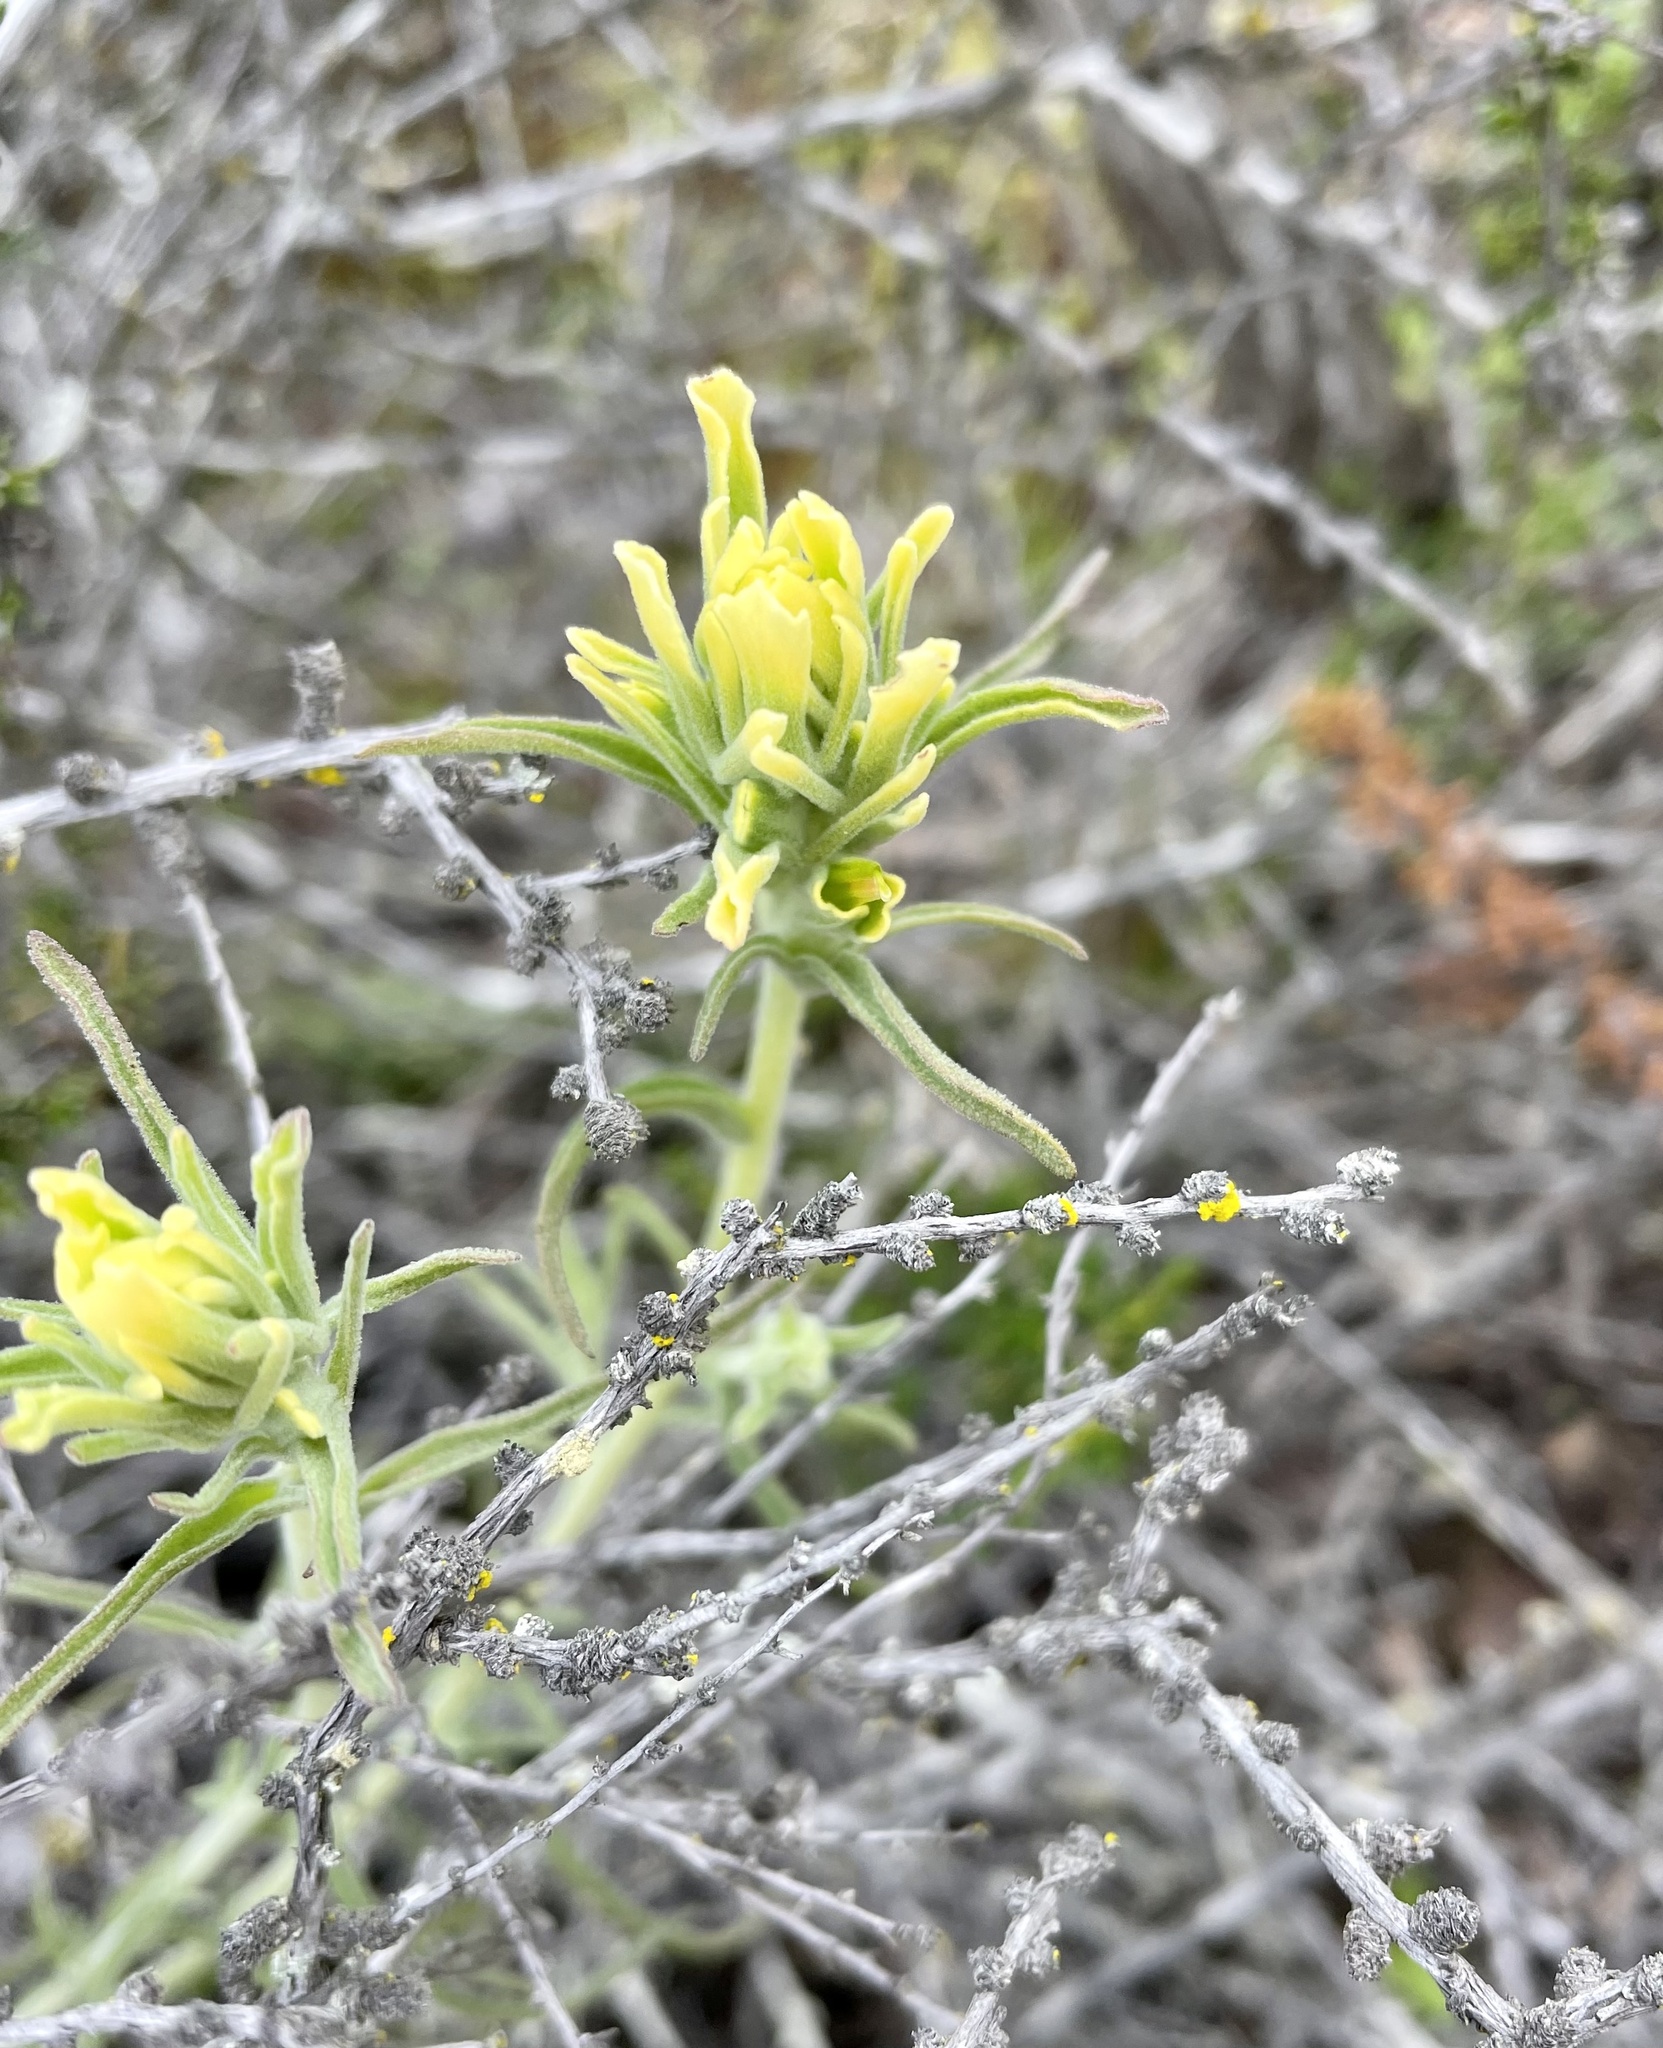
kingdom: Plantae
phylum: Tracheophyta
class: Magnoliopsida
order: Lamiales
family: Orobanchaceae
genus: Castilleja
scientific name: Castilleja foliolosa
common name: Woolly indian paintbrush
